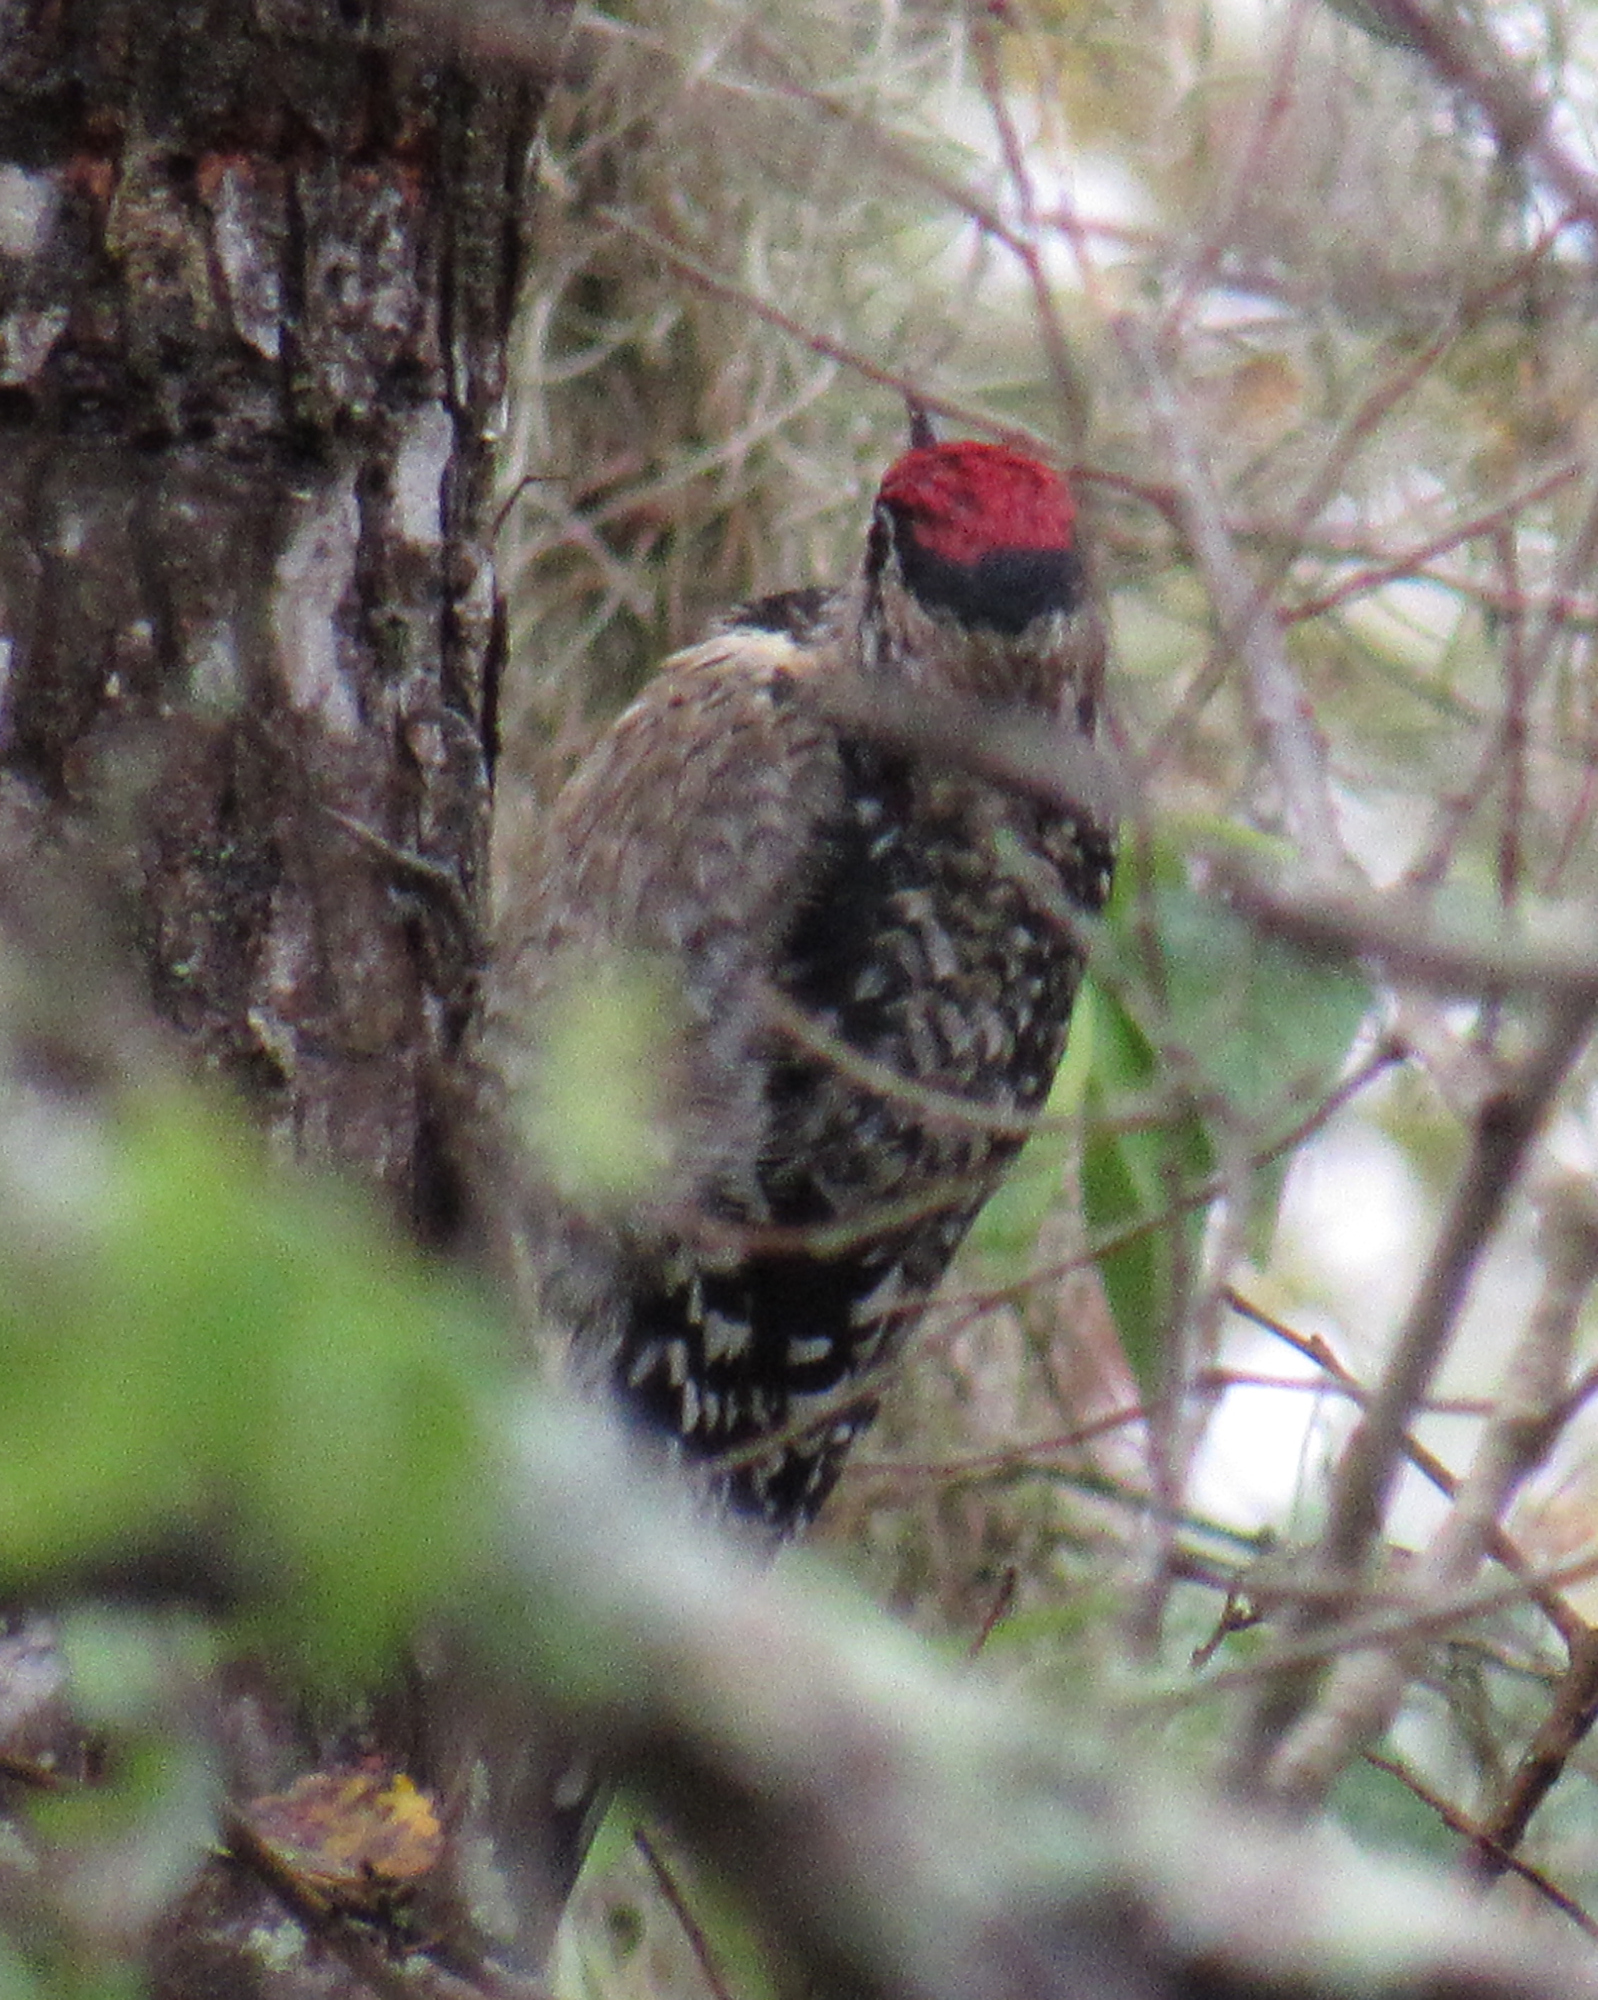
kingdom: Animalia
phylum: Chordata
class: Aves
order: Piciformes
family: Picidae
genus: Sphyrapicus
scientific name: Sphyrapicus varius
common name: Yellow-bellied sapsucker
